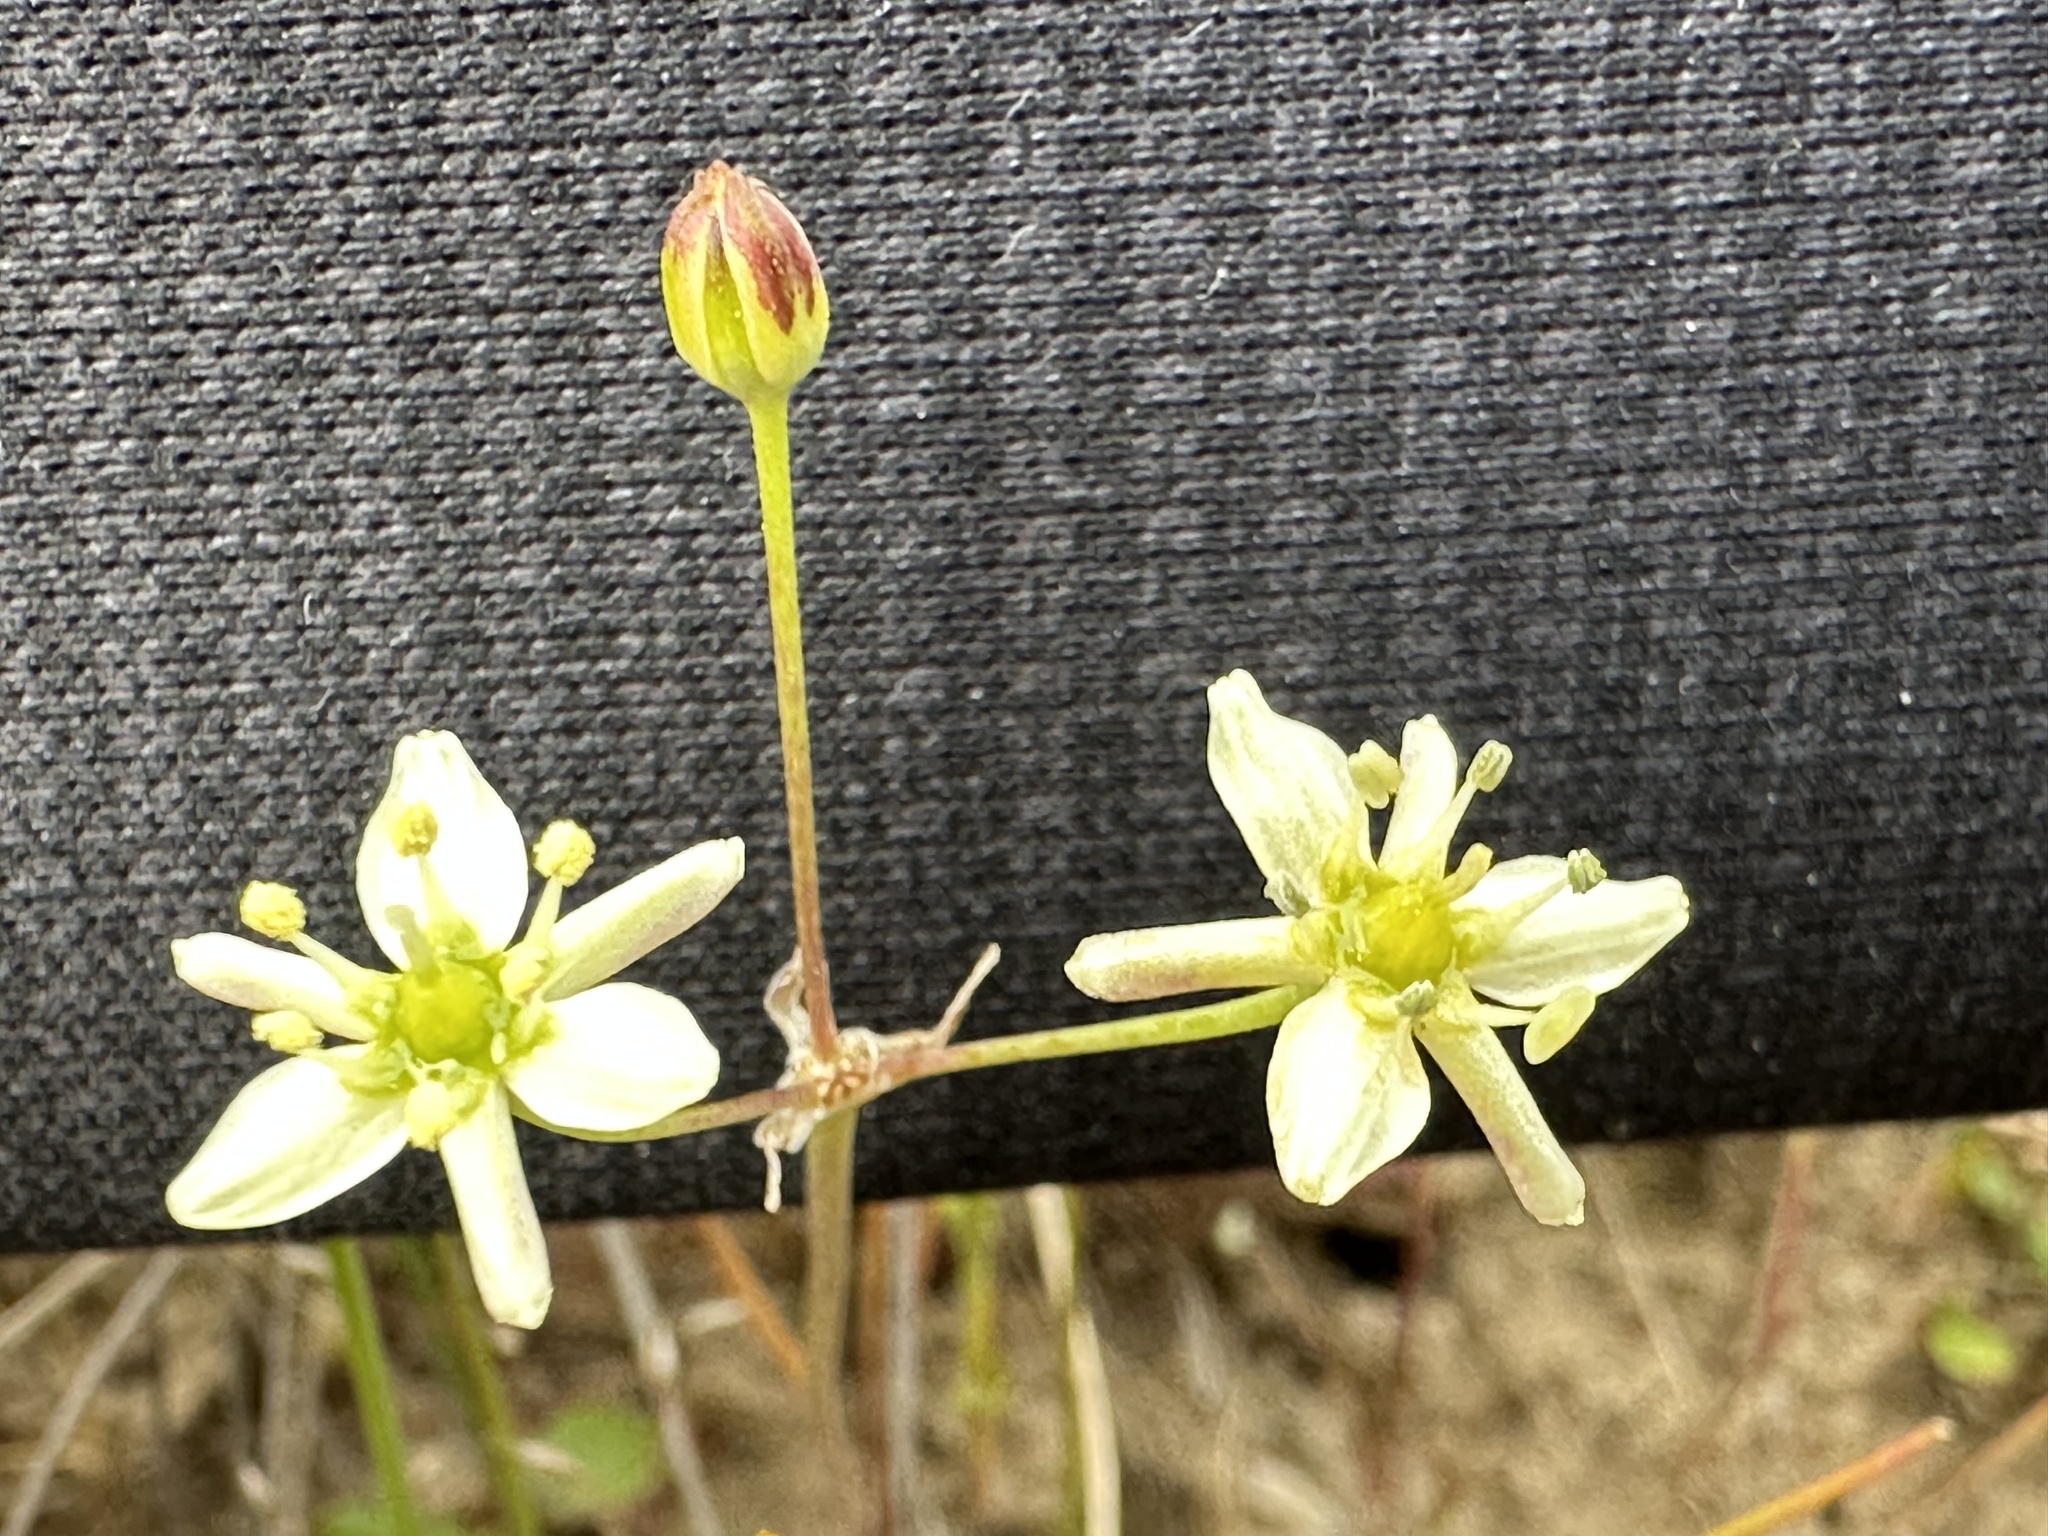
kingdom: Plantae
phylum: Tracheophyta
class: Liliopsida
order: Asparagales
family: Asparagaceae
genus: Muilla
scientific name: Muilla maritima
